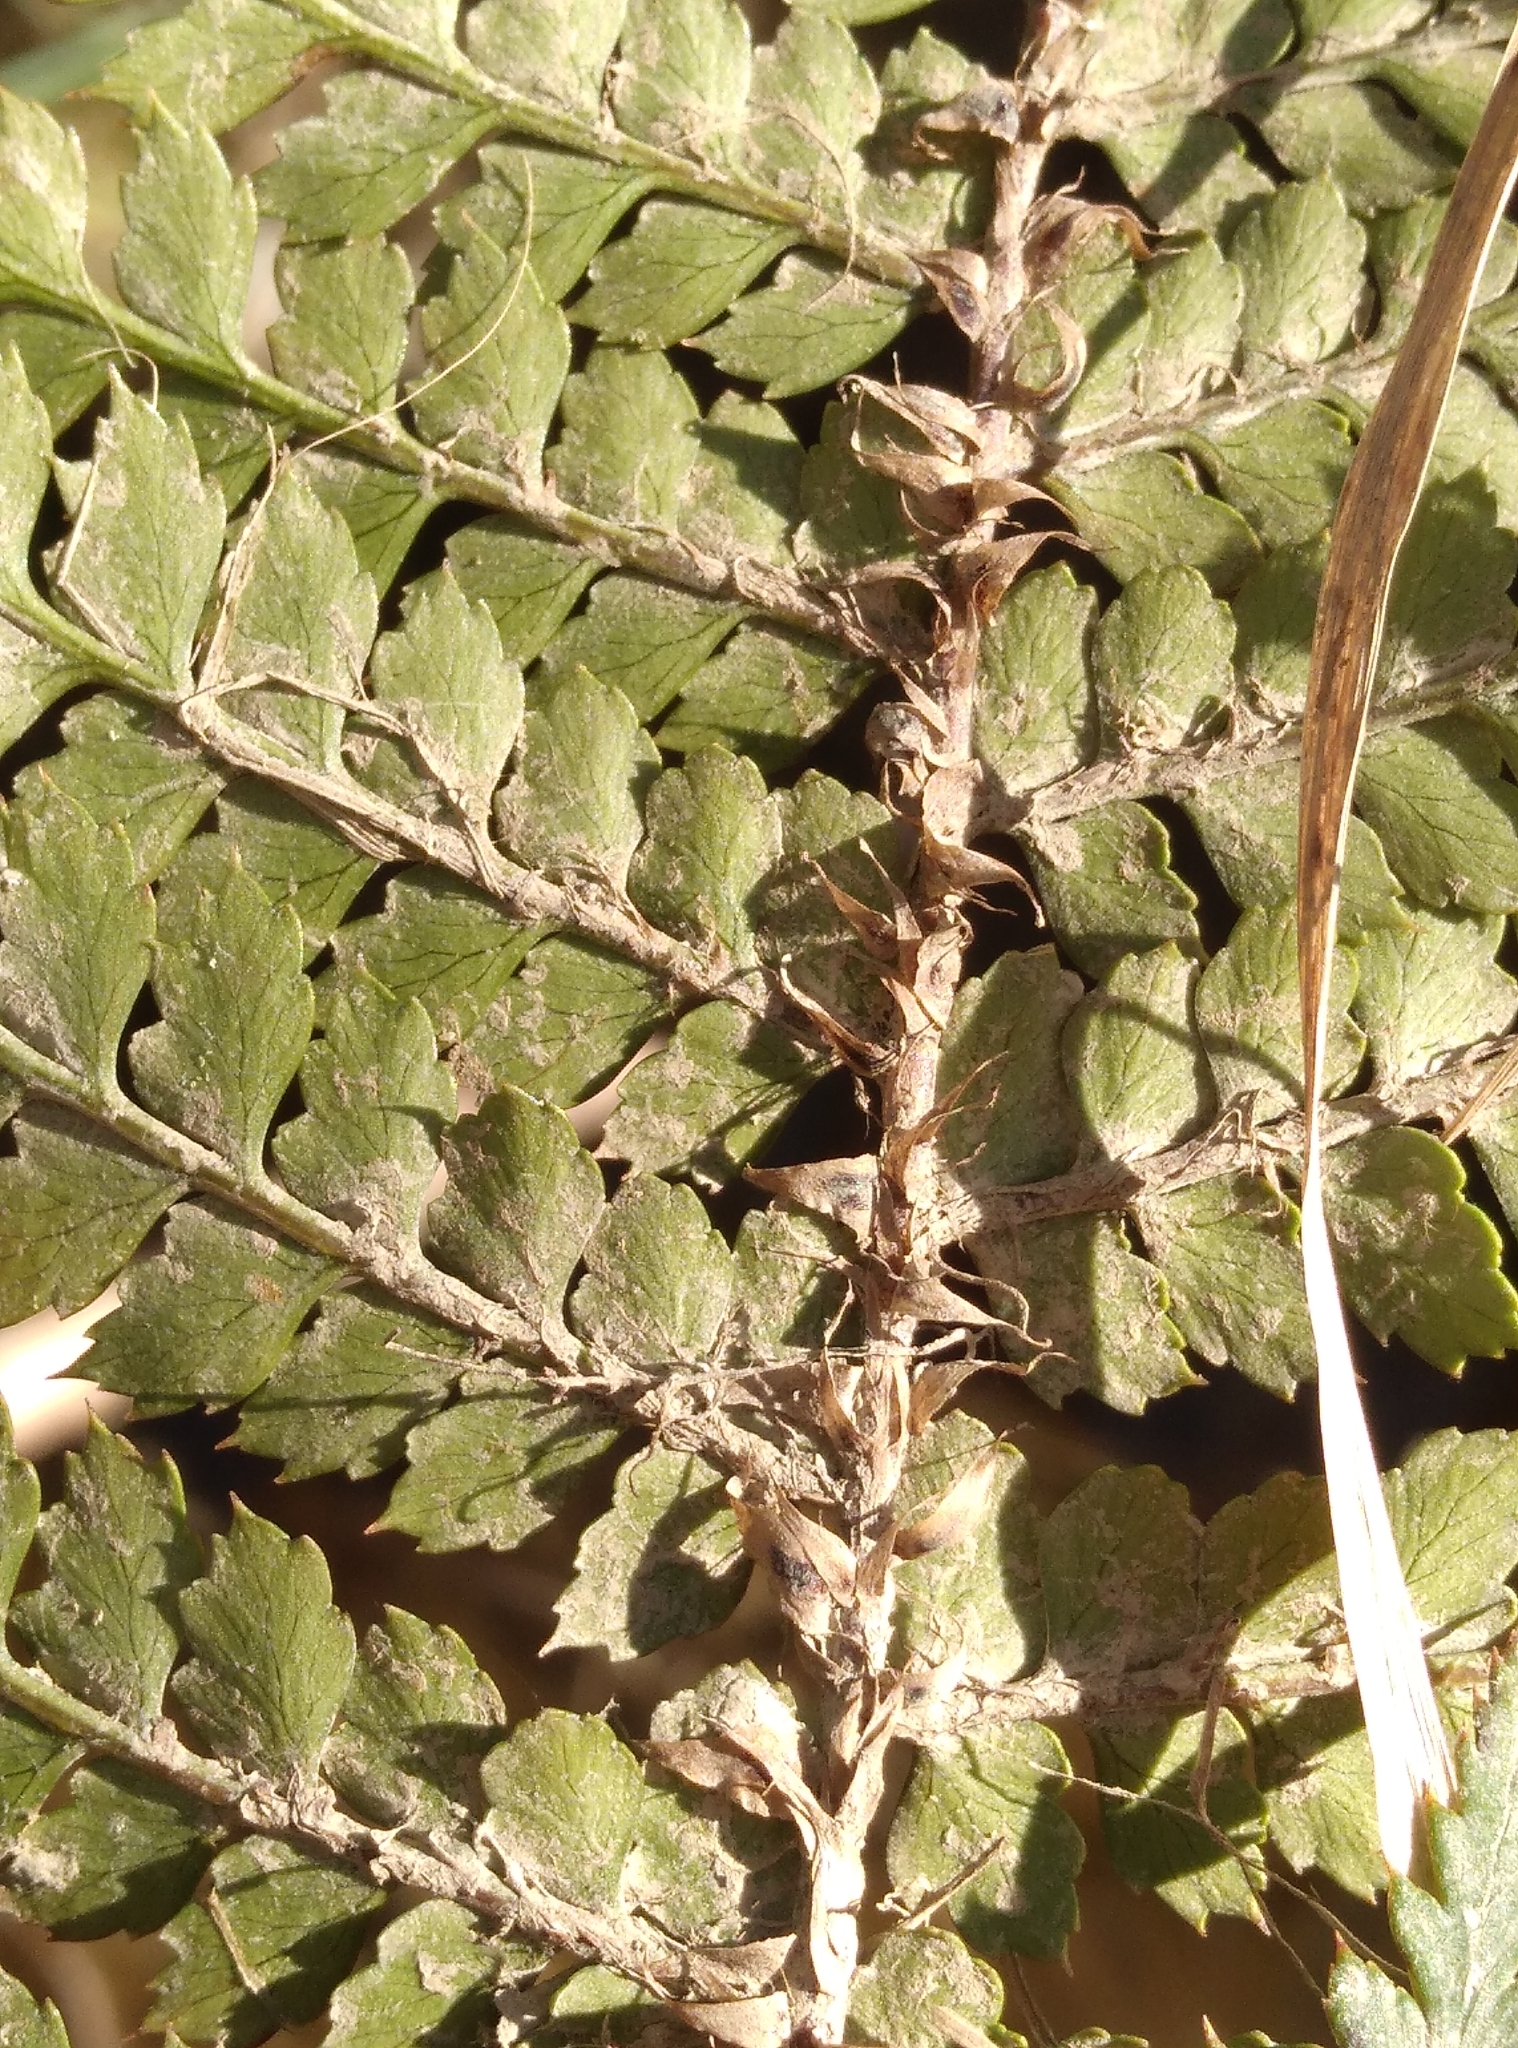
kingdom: Plantae
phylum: Tracheophyta
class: Polypodiopsida
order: Polypodiales
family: Dryopteridaceae
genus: Polystichum
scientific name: Polystichum vestitum
